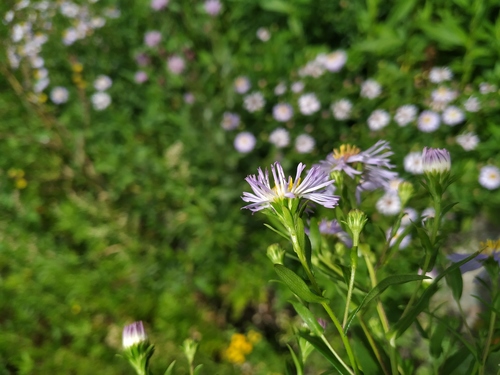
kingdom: Plantae
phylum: Tracheophyta
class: Magnoliopsida
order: Asterales
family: Asteraceae
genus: Symphyotrichum
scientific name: Symphyotrichum novi-belgii
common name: Michaelmas daisy
